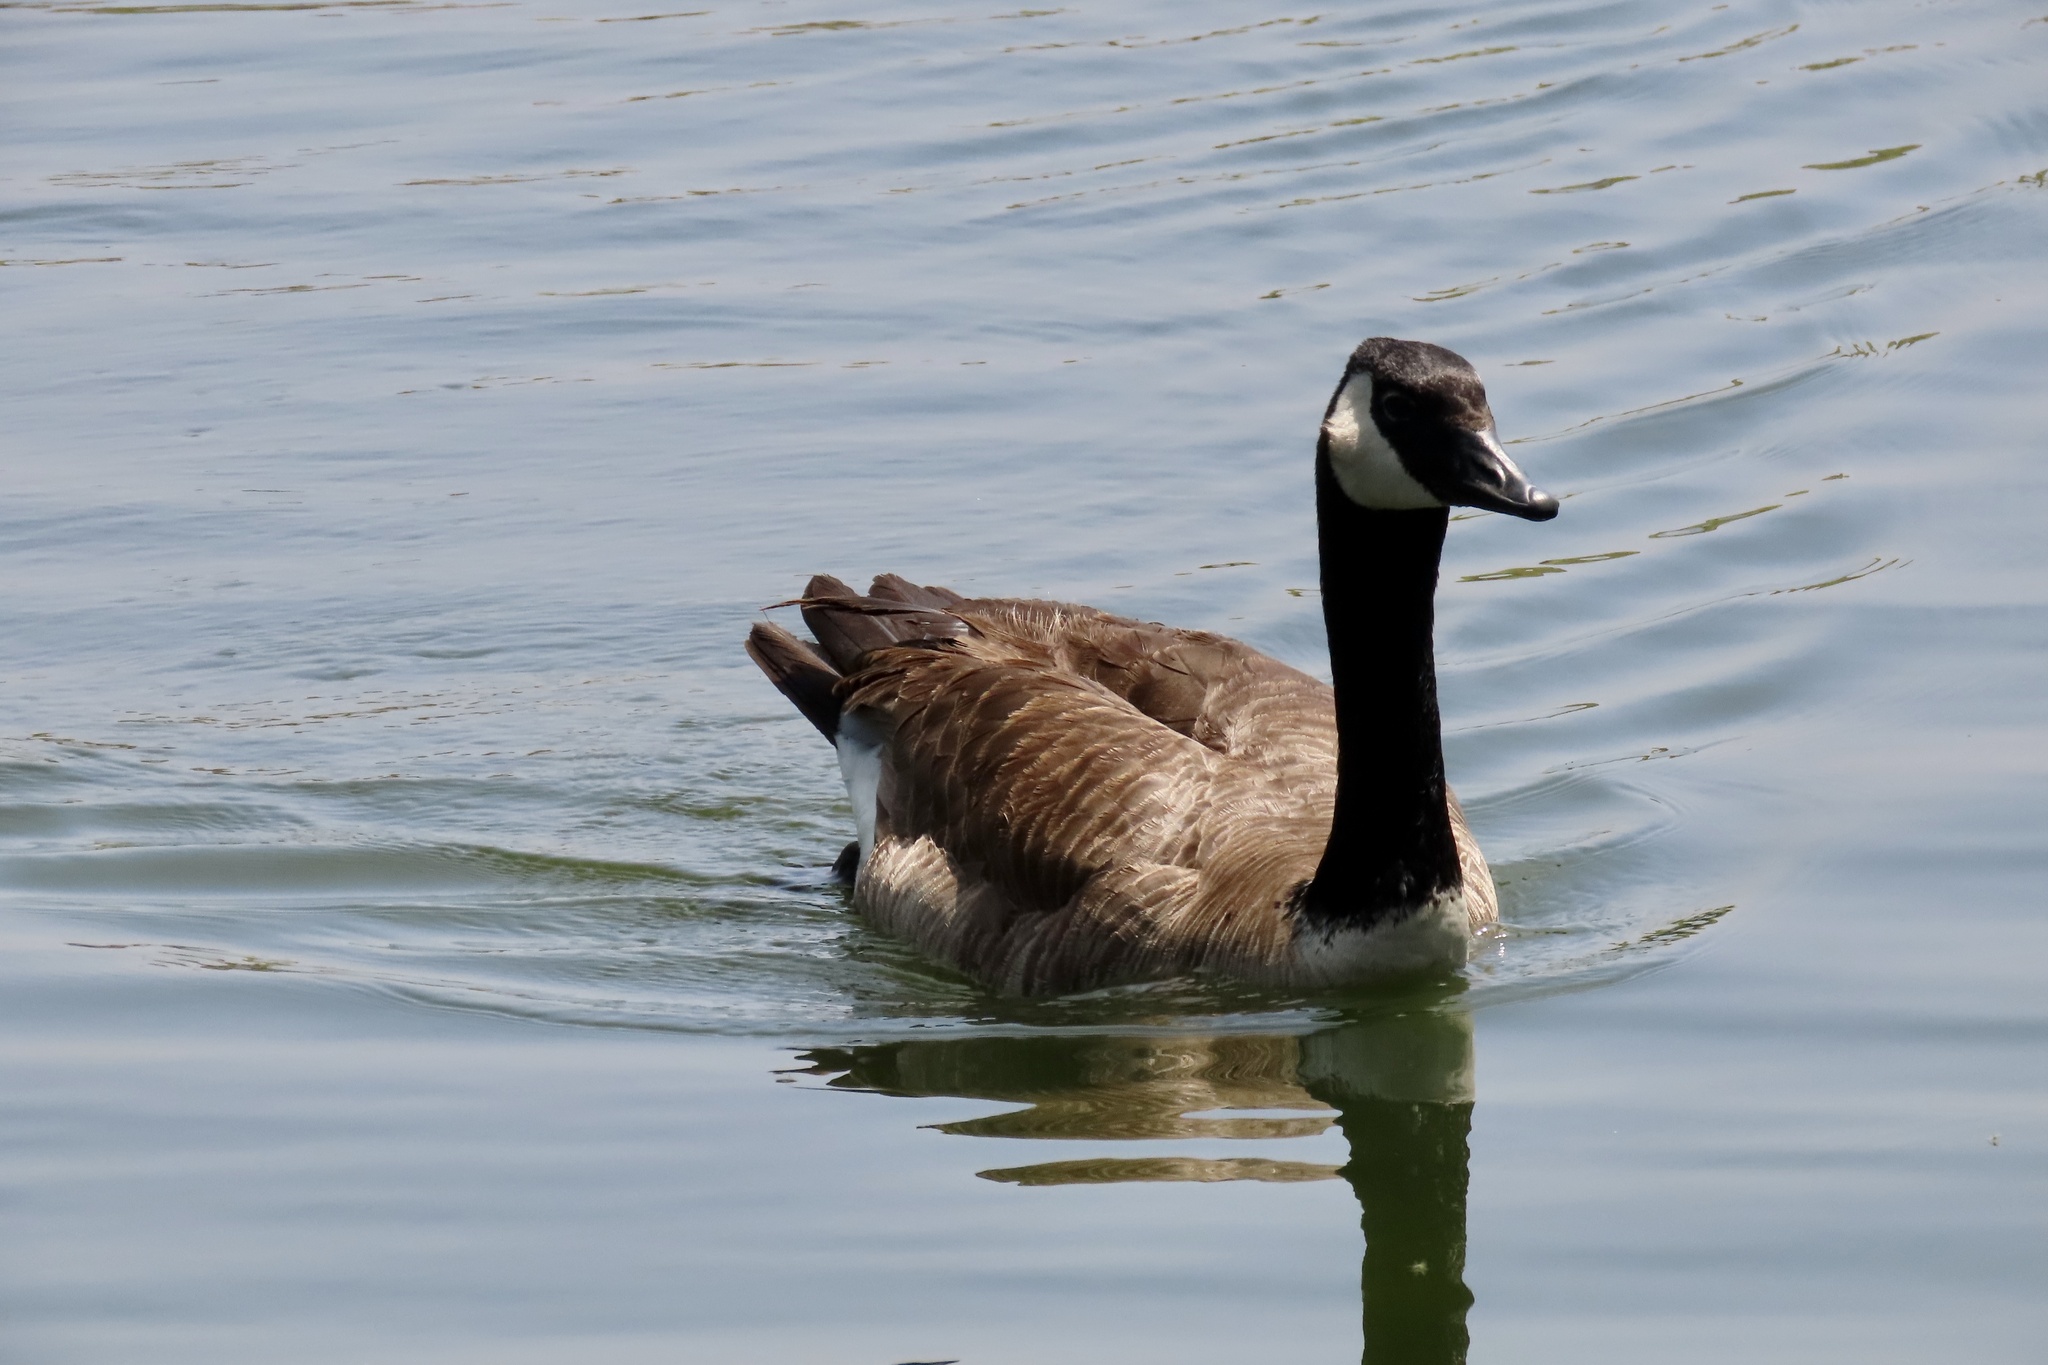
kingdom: Animalia
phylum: Chordata
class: Aves
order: Anseriformes
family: Anatidae
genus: Branta
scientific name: Branta canadensis
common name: Canada goose
